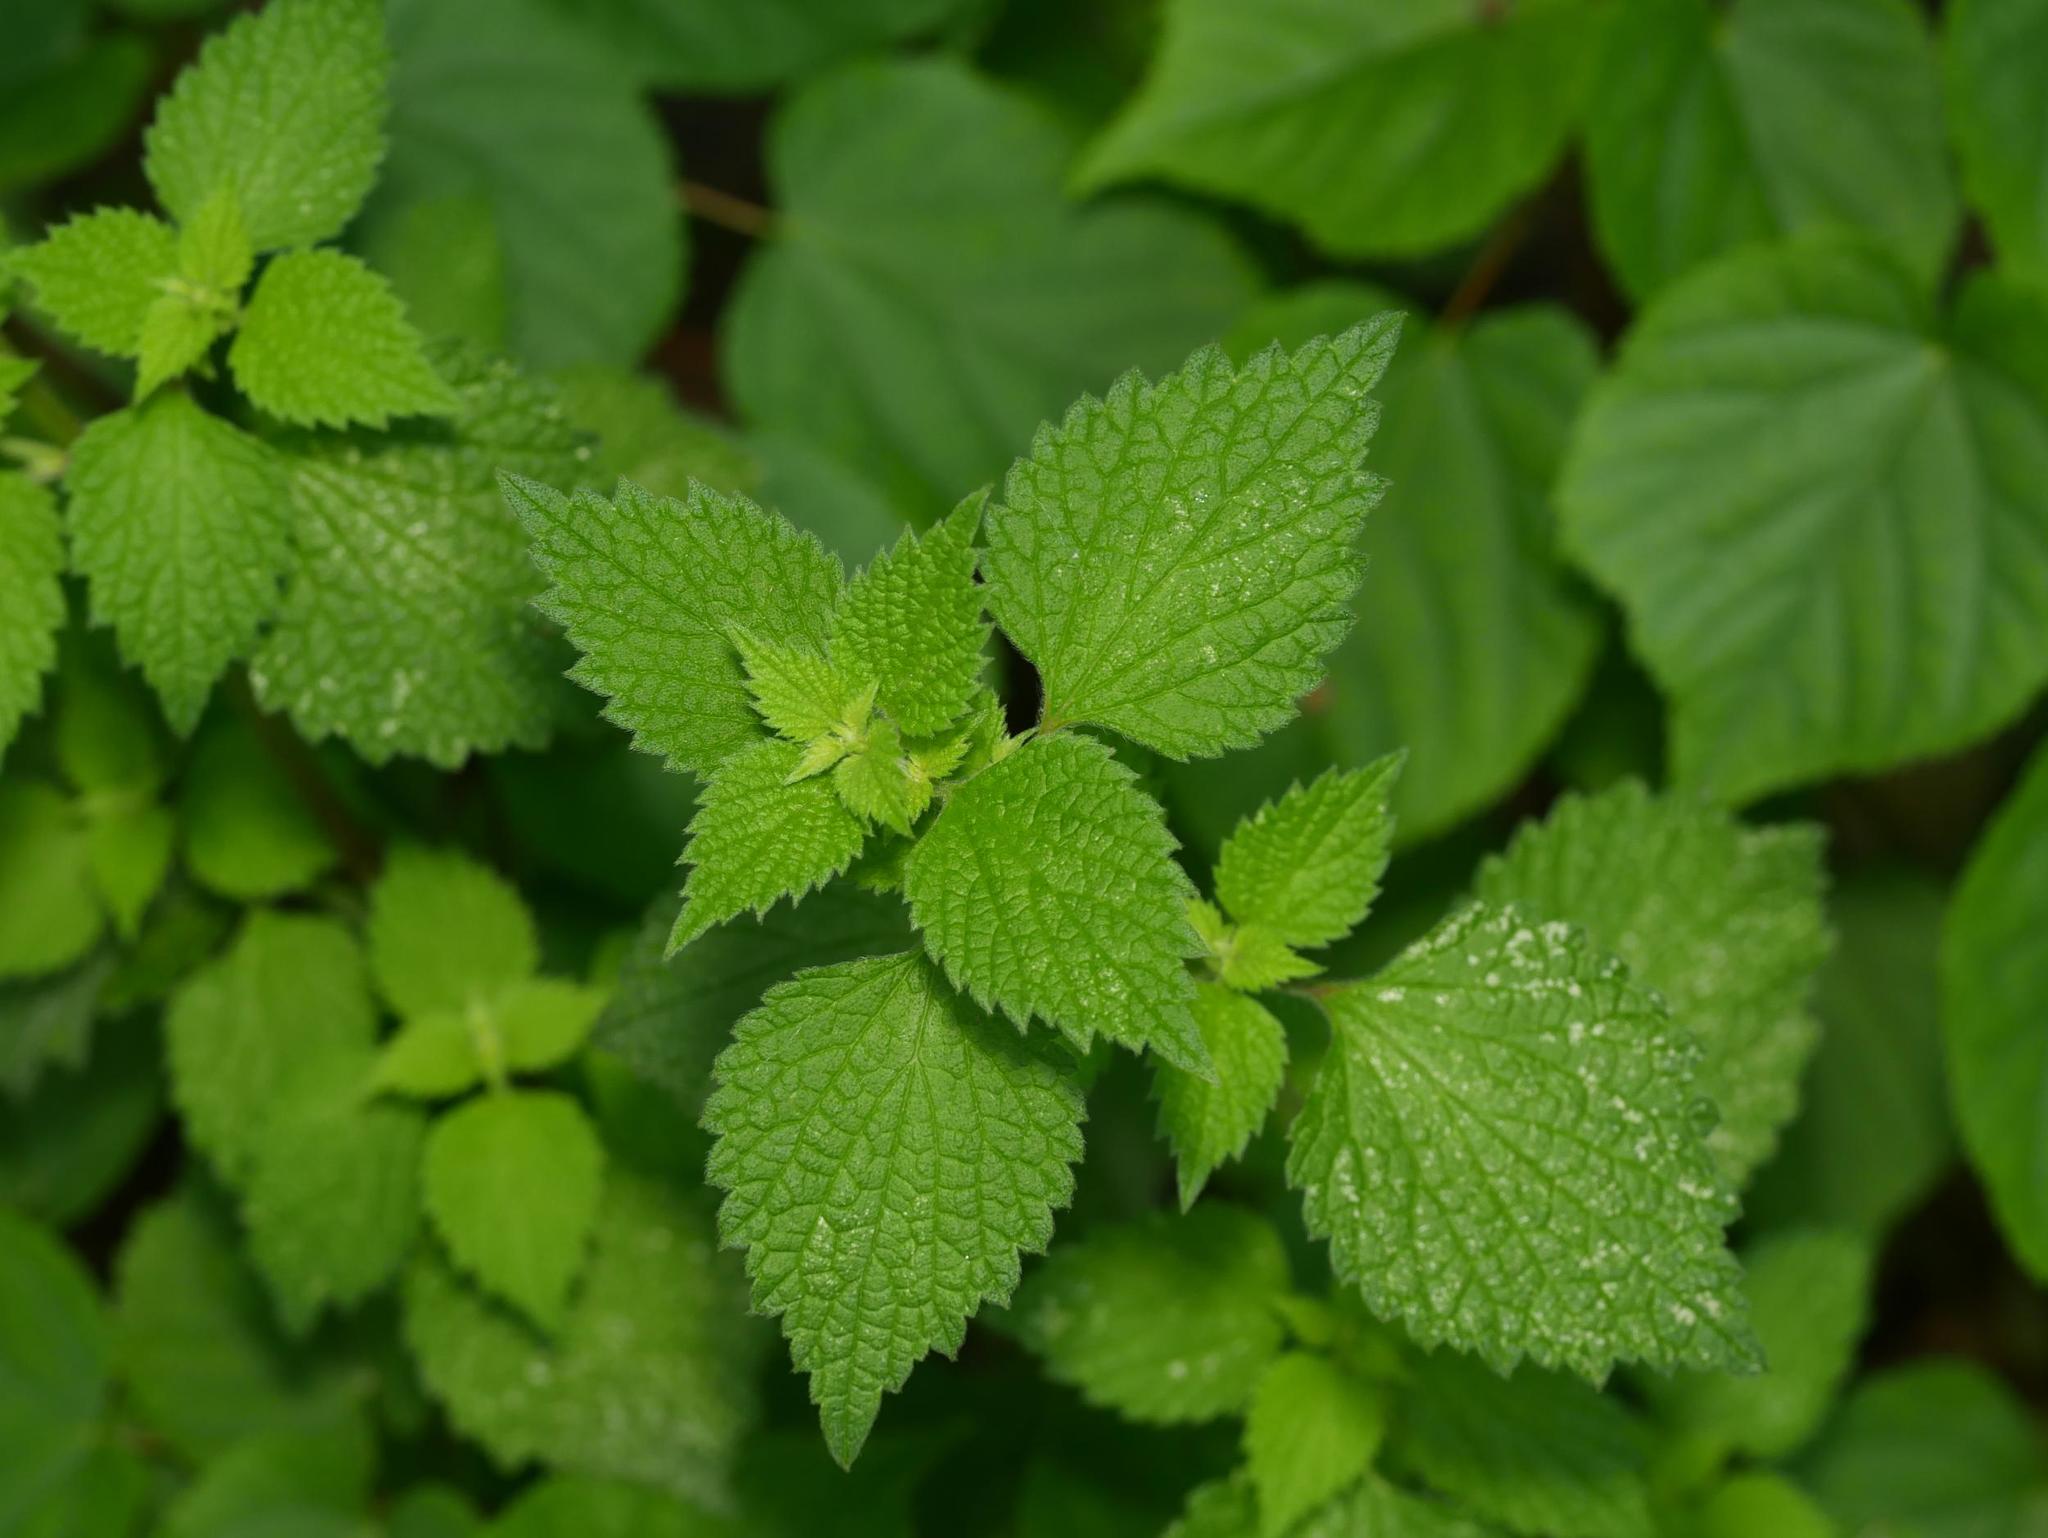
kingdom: Plantae
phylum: Tracheophyta
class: Magnoliopsida
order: Lamiales
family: Lamiaceae
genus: Ballota
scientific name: Ballota nigra
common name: Black horehound
